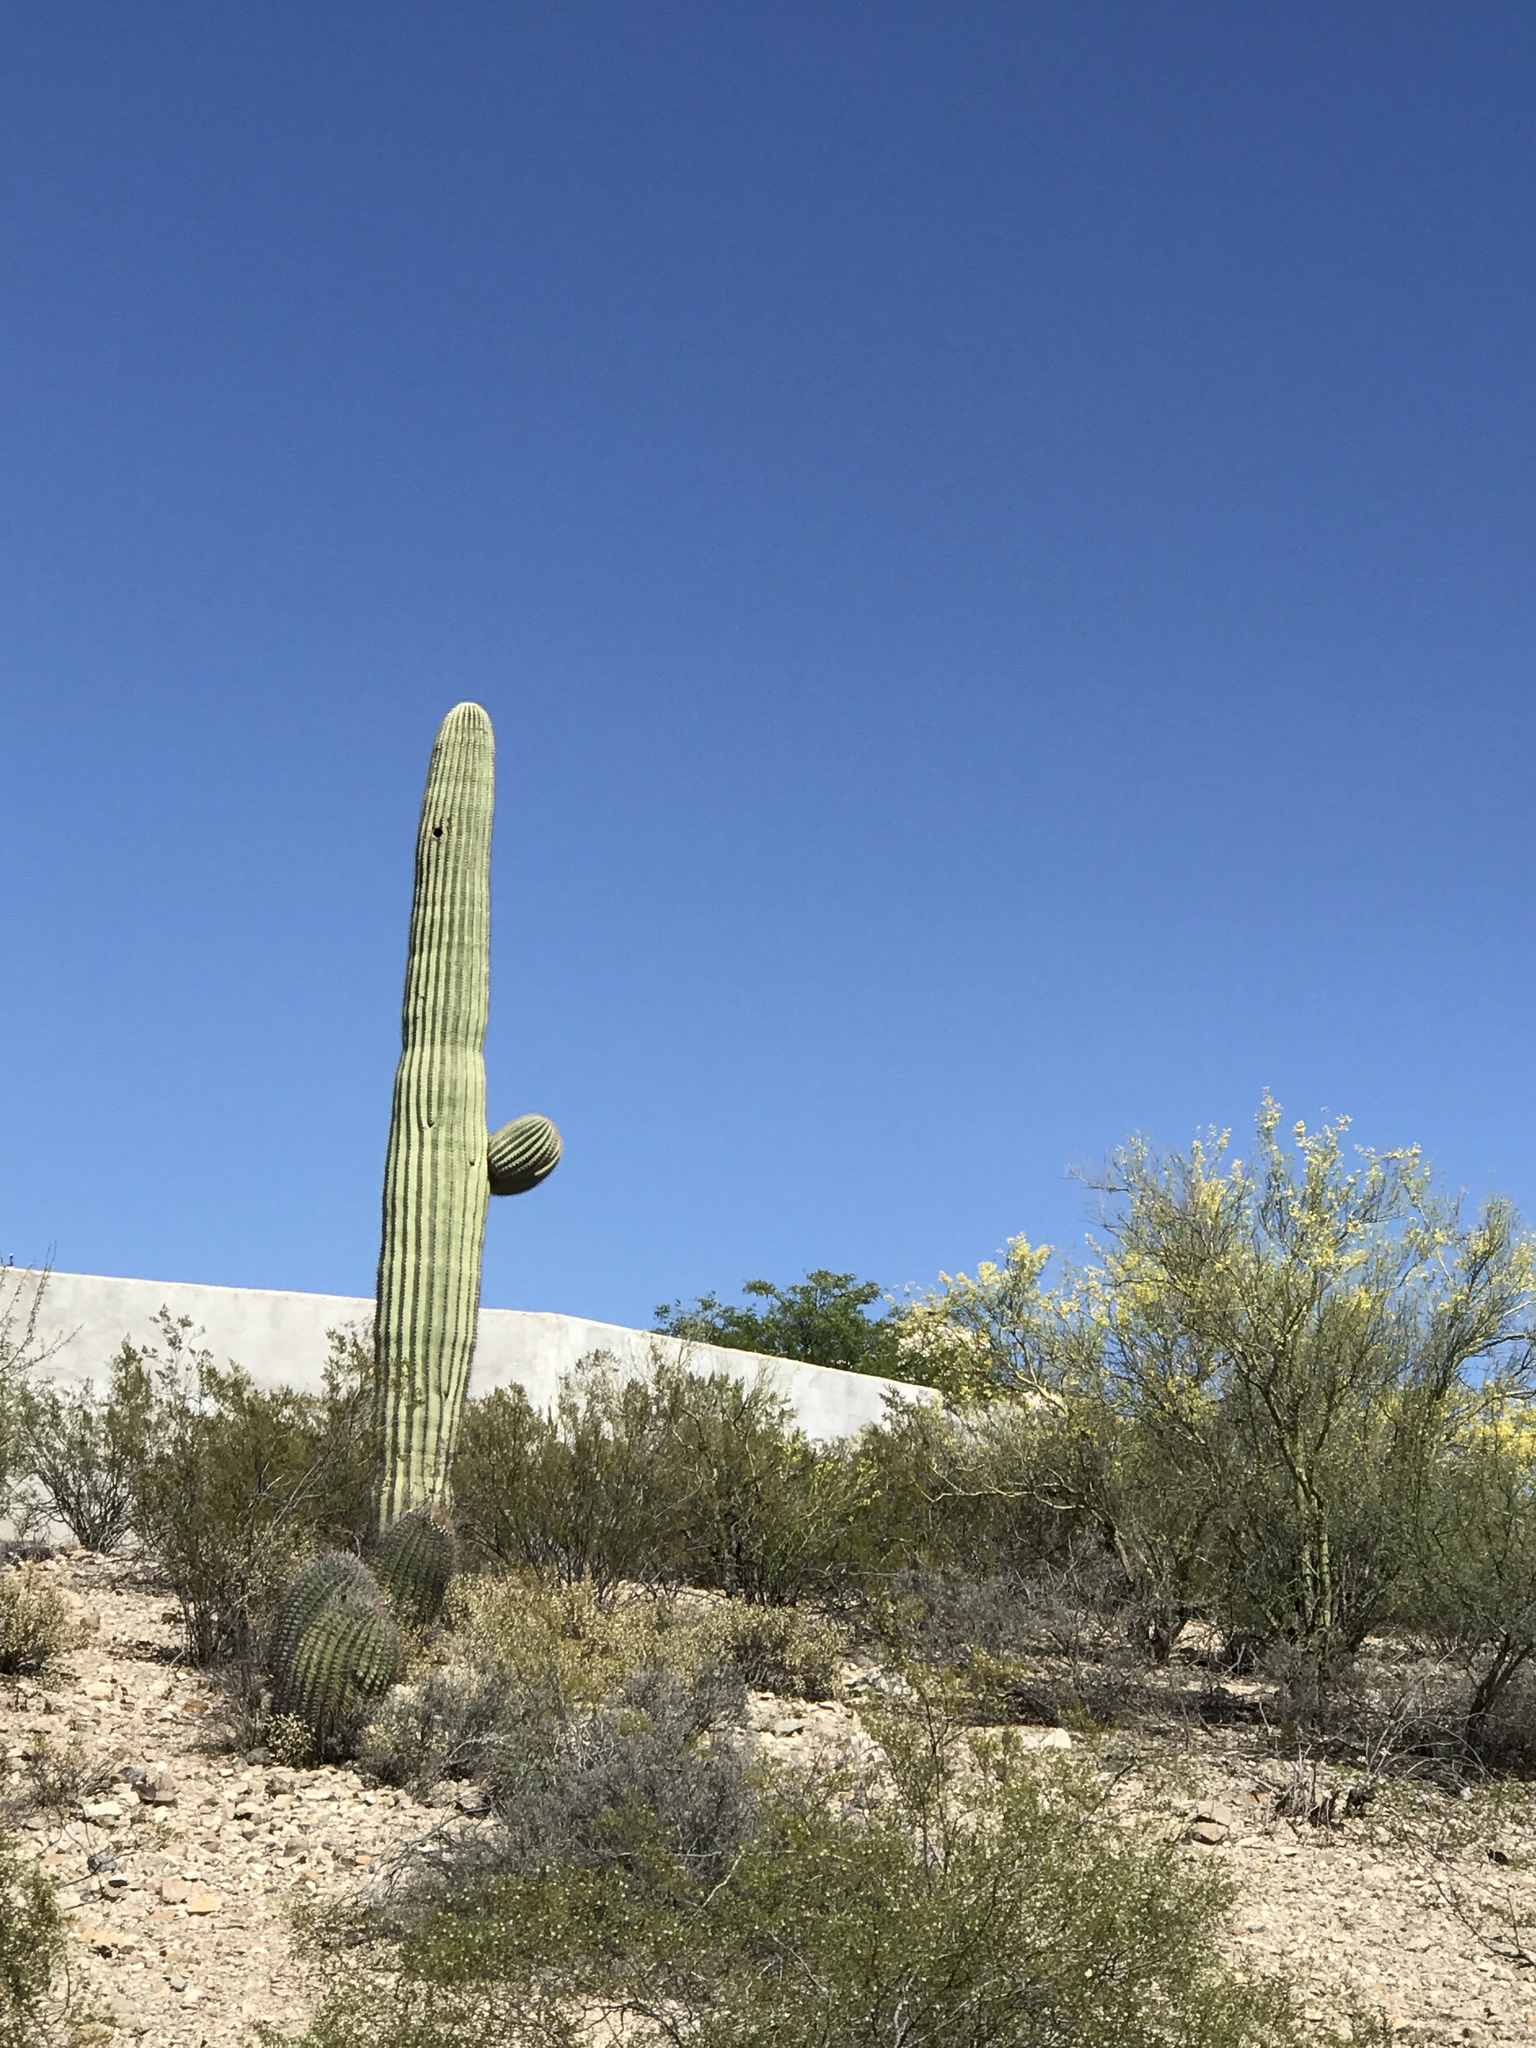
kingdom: Plantae
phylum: Tracheophyta
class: Magnoliopsida
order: Caryophyllales
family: Cactaceae
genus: Carnegiea
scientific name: Carnegiea gigantea
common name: Saguaro
